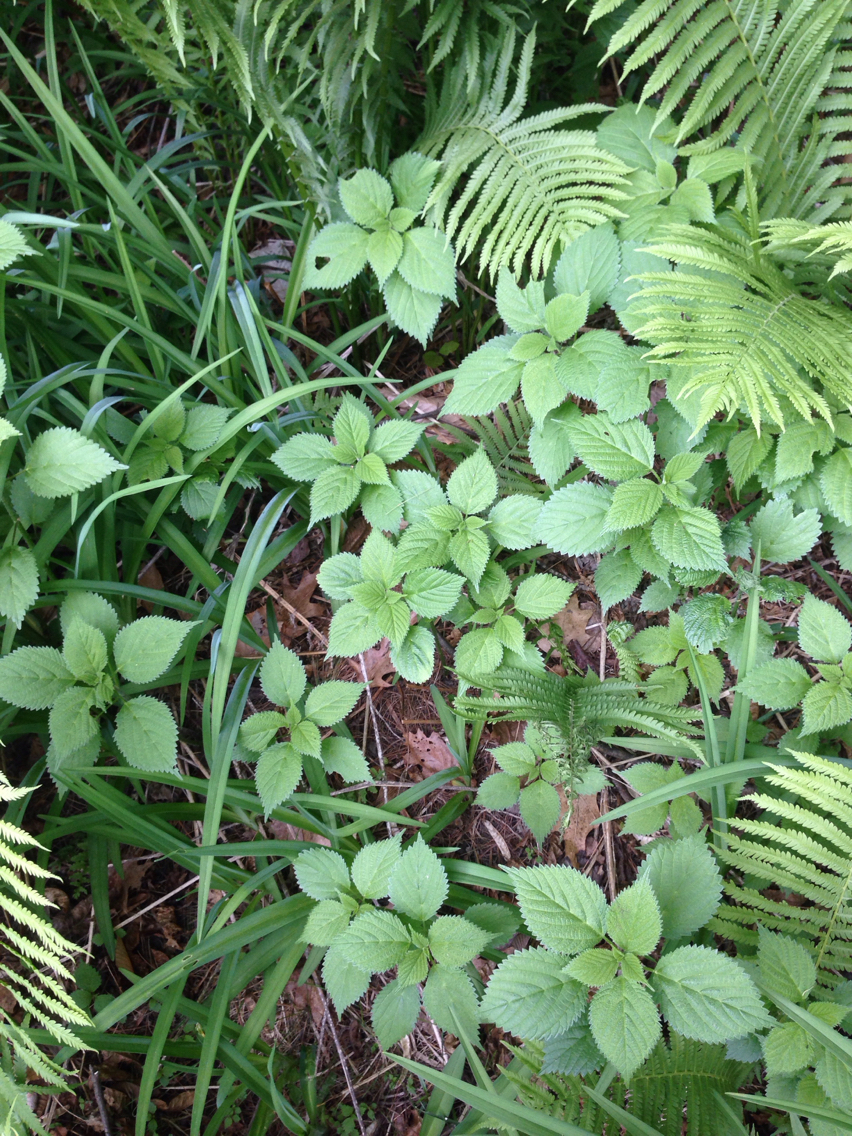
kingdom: Plantae
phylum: Tracheophyta
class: Magnoliopsida
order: Rosales
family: Urticaceae
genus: Laportea
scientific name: Laportea canadensis
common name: Canada nettle
